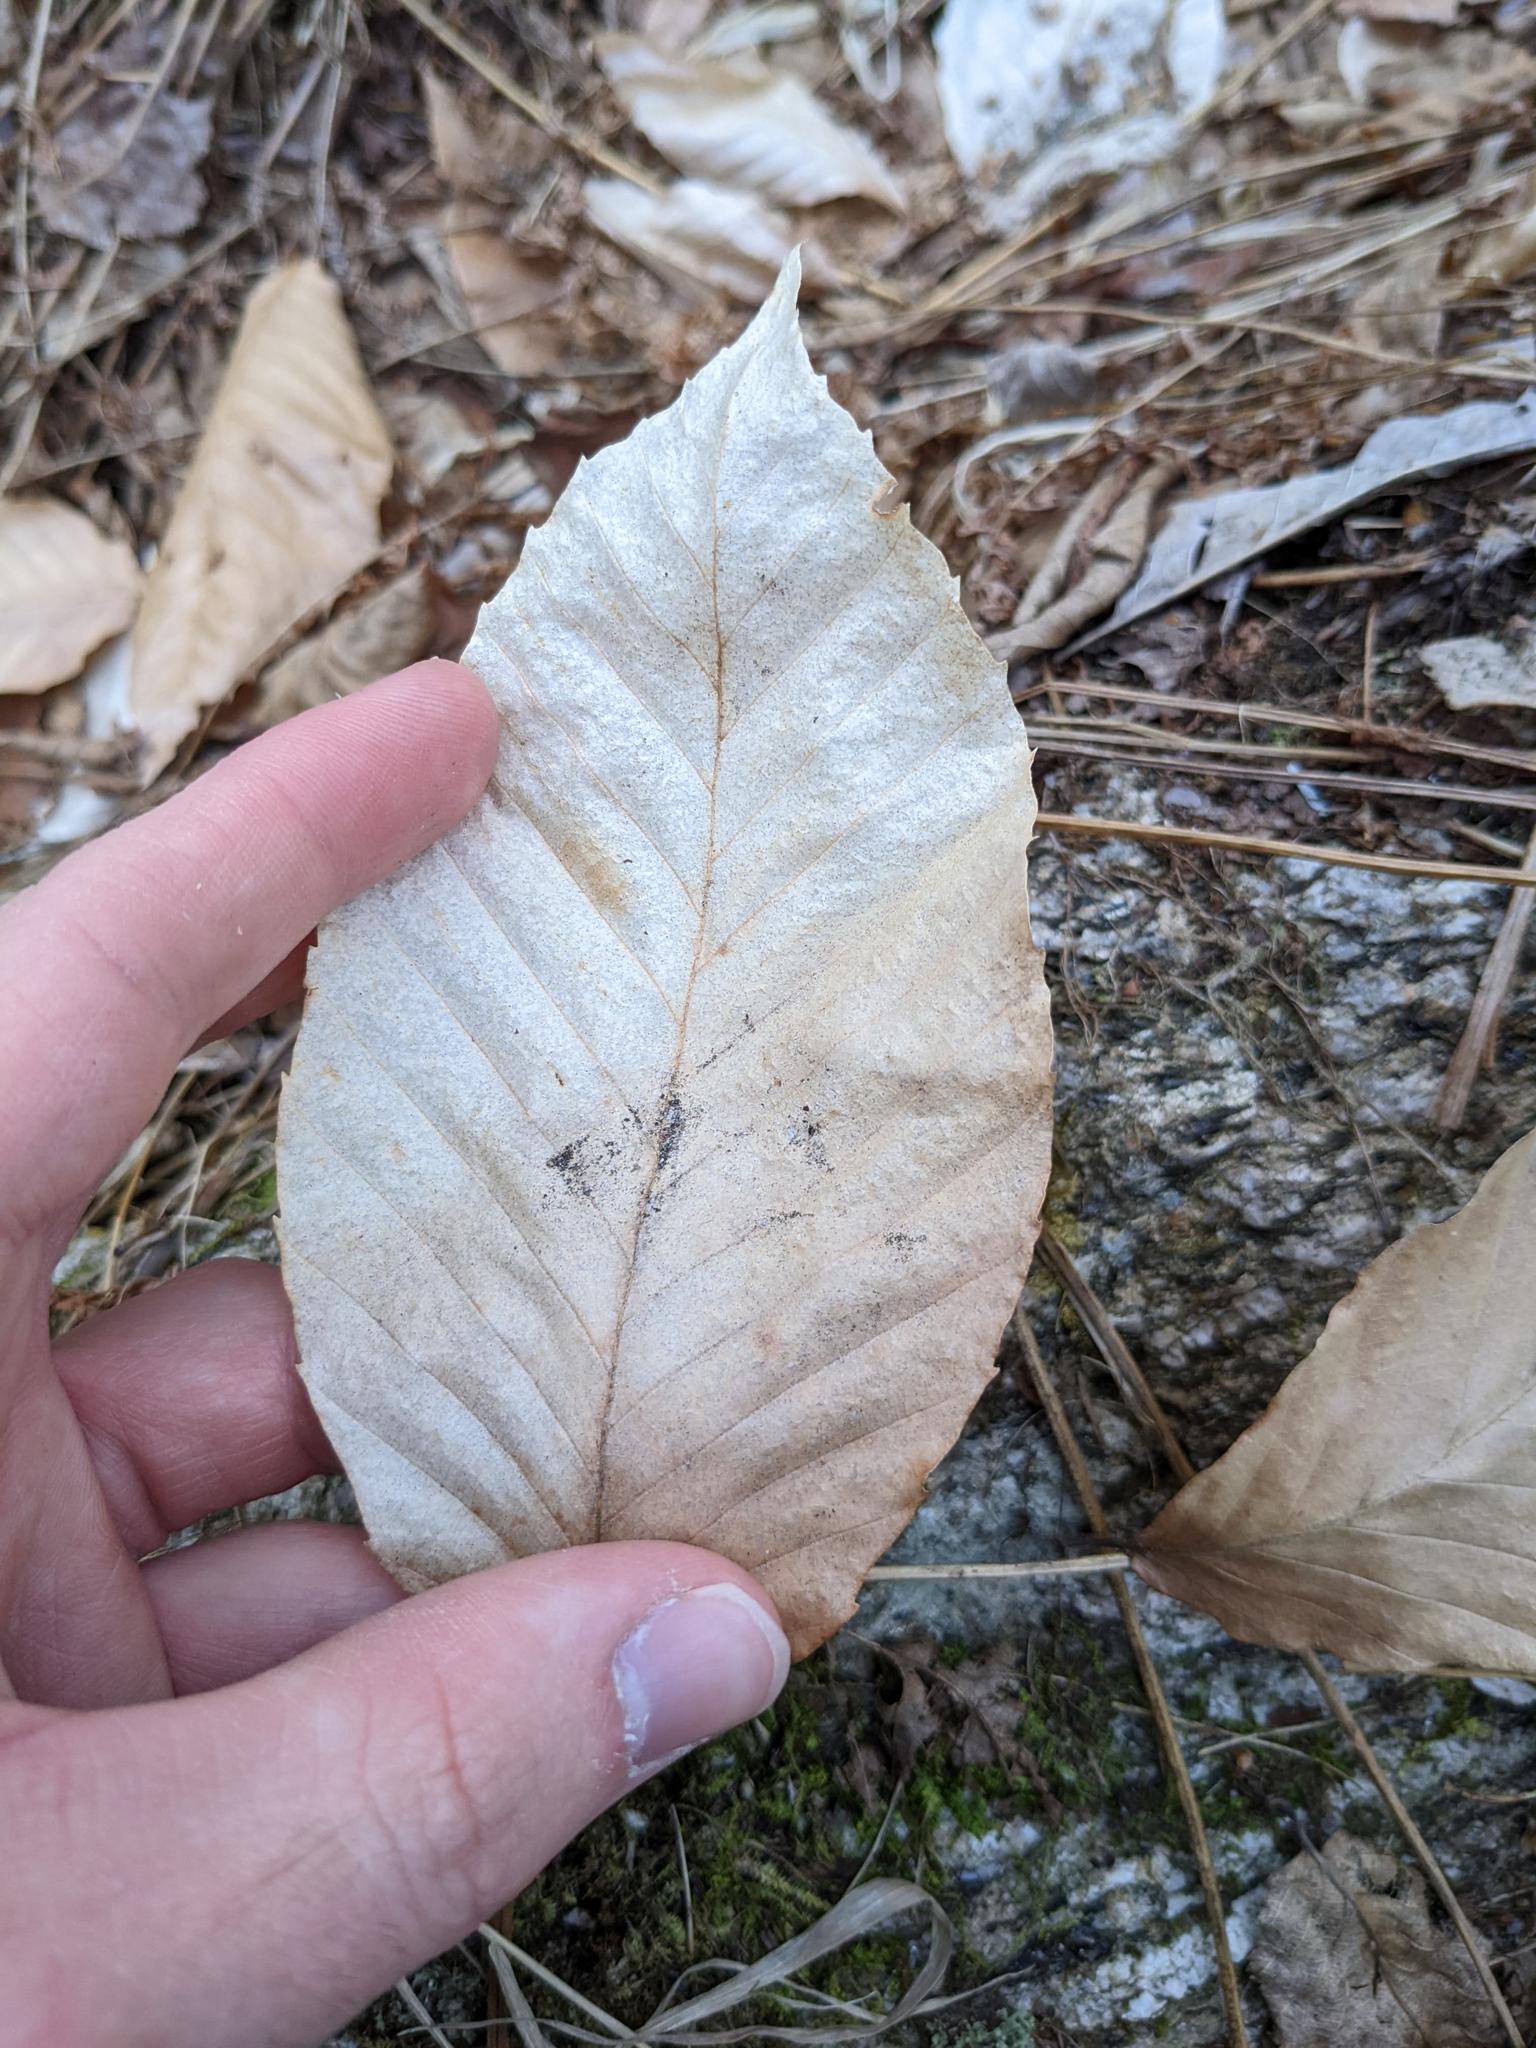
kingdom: Plantae
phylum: Tracheophyta
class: Magnoliopsida
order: Fagales
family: Fagaceae
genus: Fagus
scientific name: Fagus grandifolia
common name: American beech
